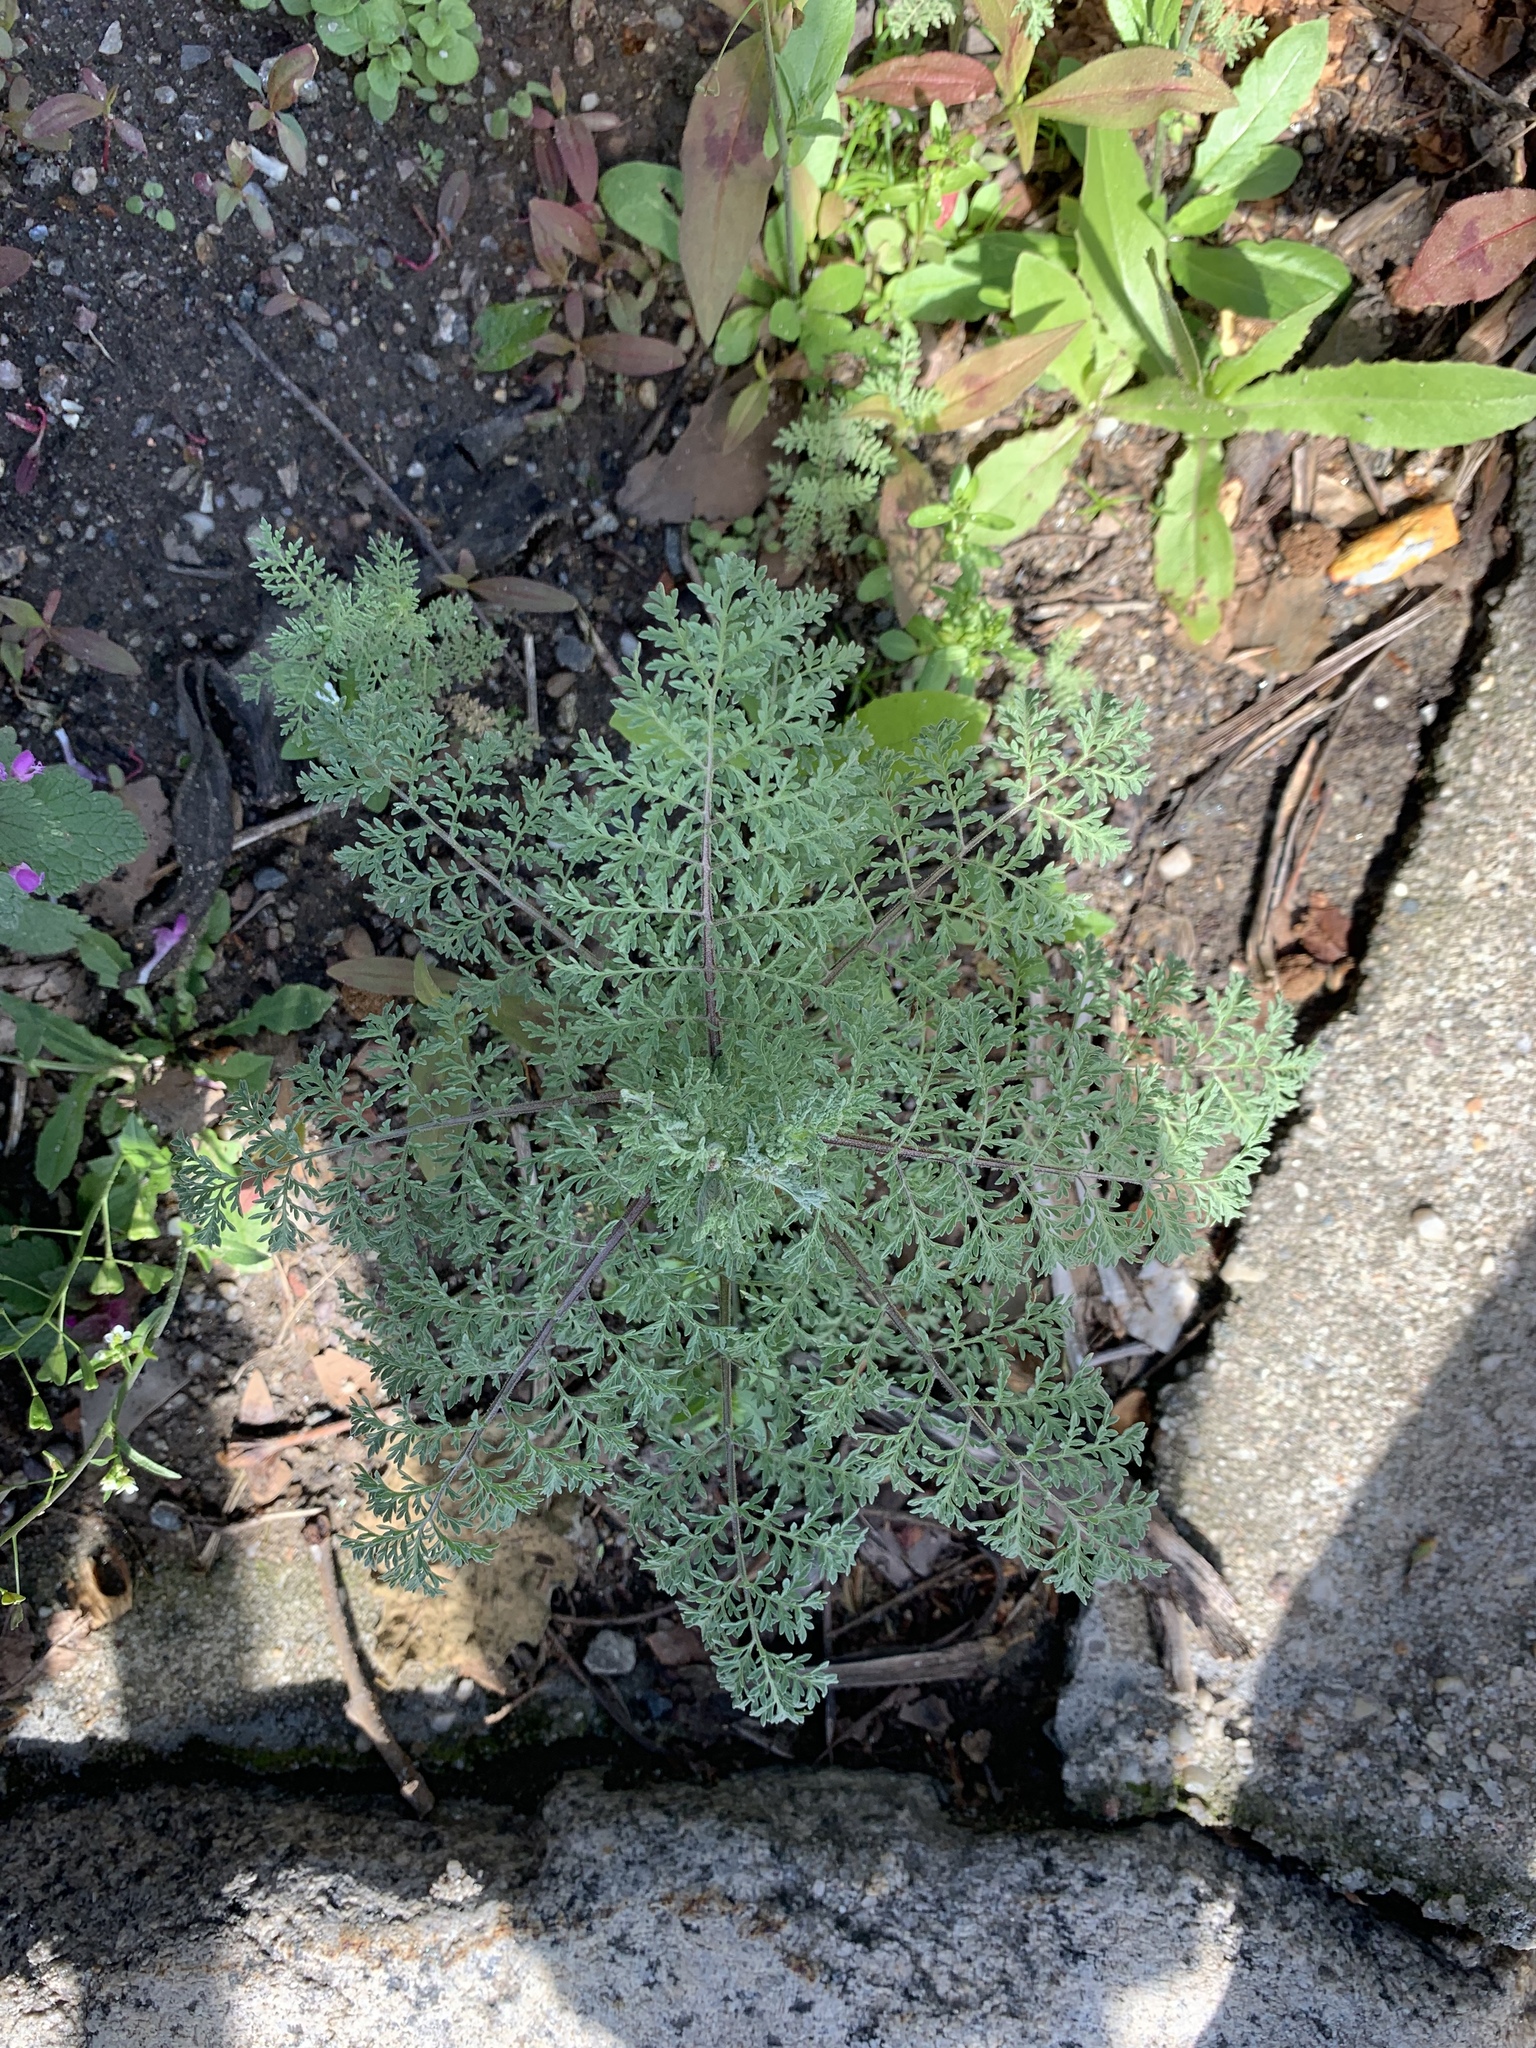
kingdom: Plantae
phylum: Tracheophyta
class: Magnoliopsida
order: Brassicales
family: Brassicaceae
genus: Descurainia
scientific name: Descurainia sophia
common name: Flixweed
